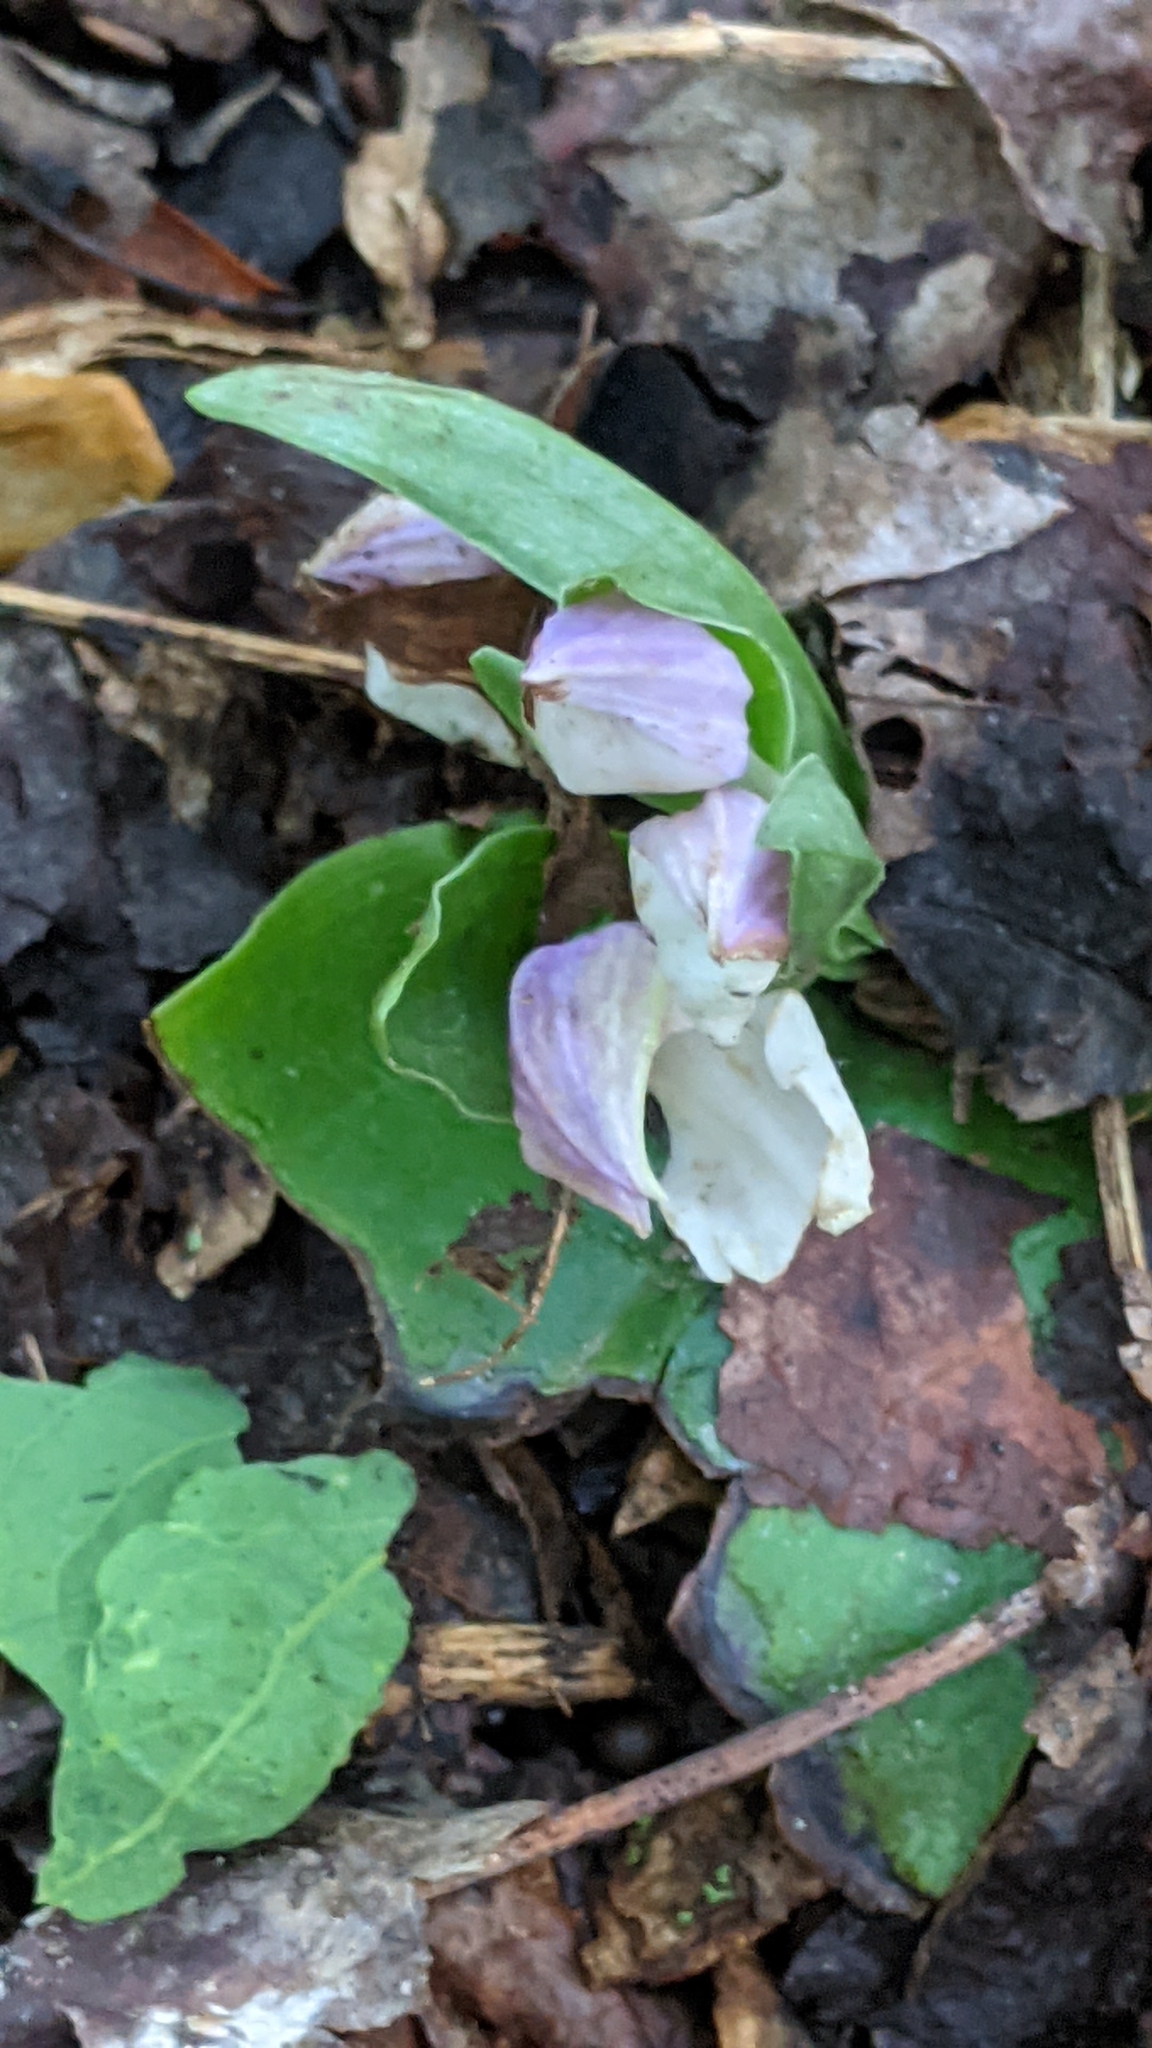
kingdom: Plantae
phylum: Tracheophyta
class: Liliopsida
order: Asparagales
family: Orchidaceae
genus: Galearis
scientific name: Galearis spectabilis
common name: Purple-hooded orchis
